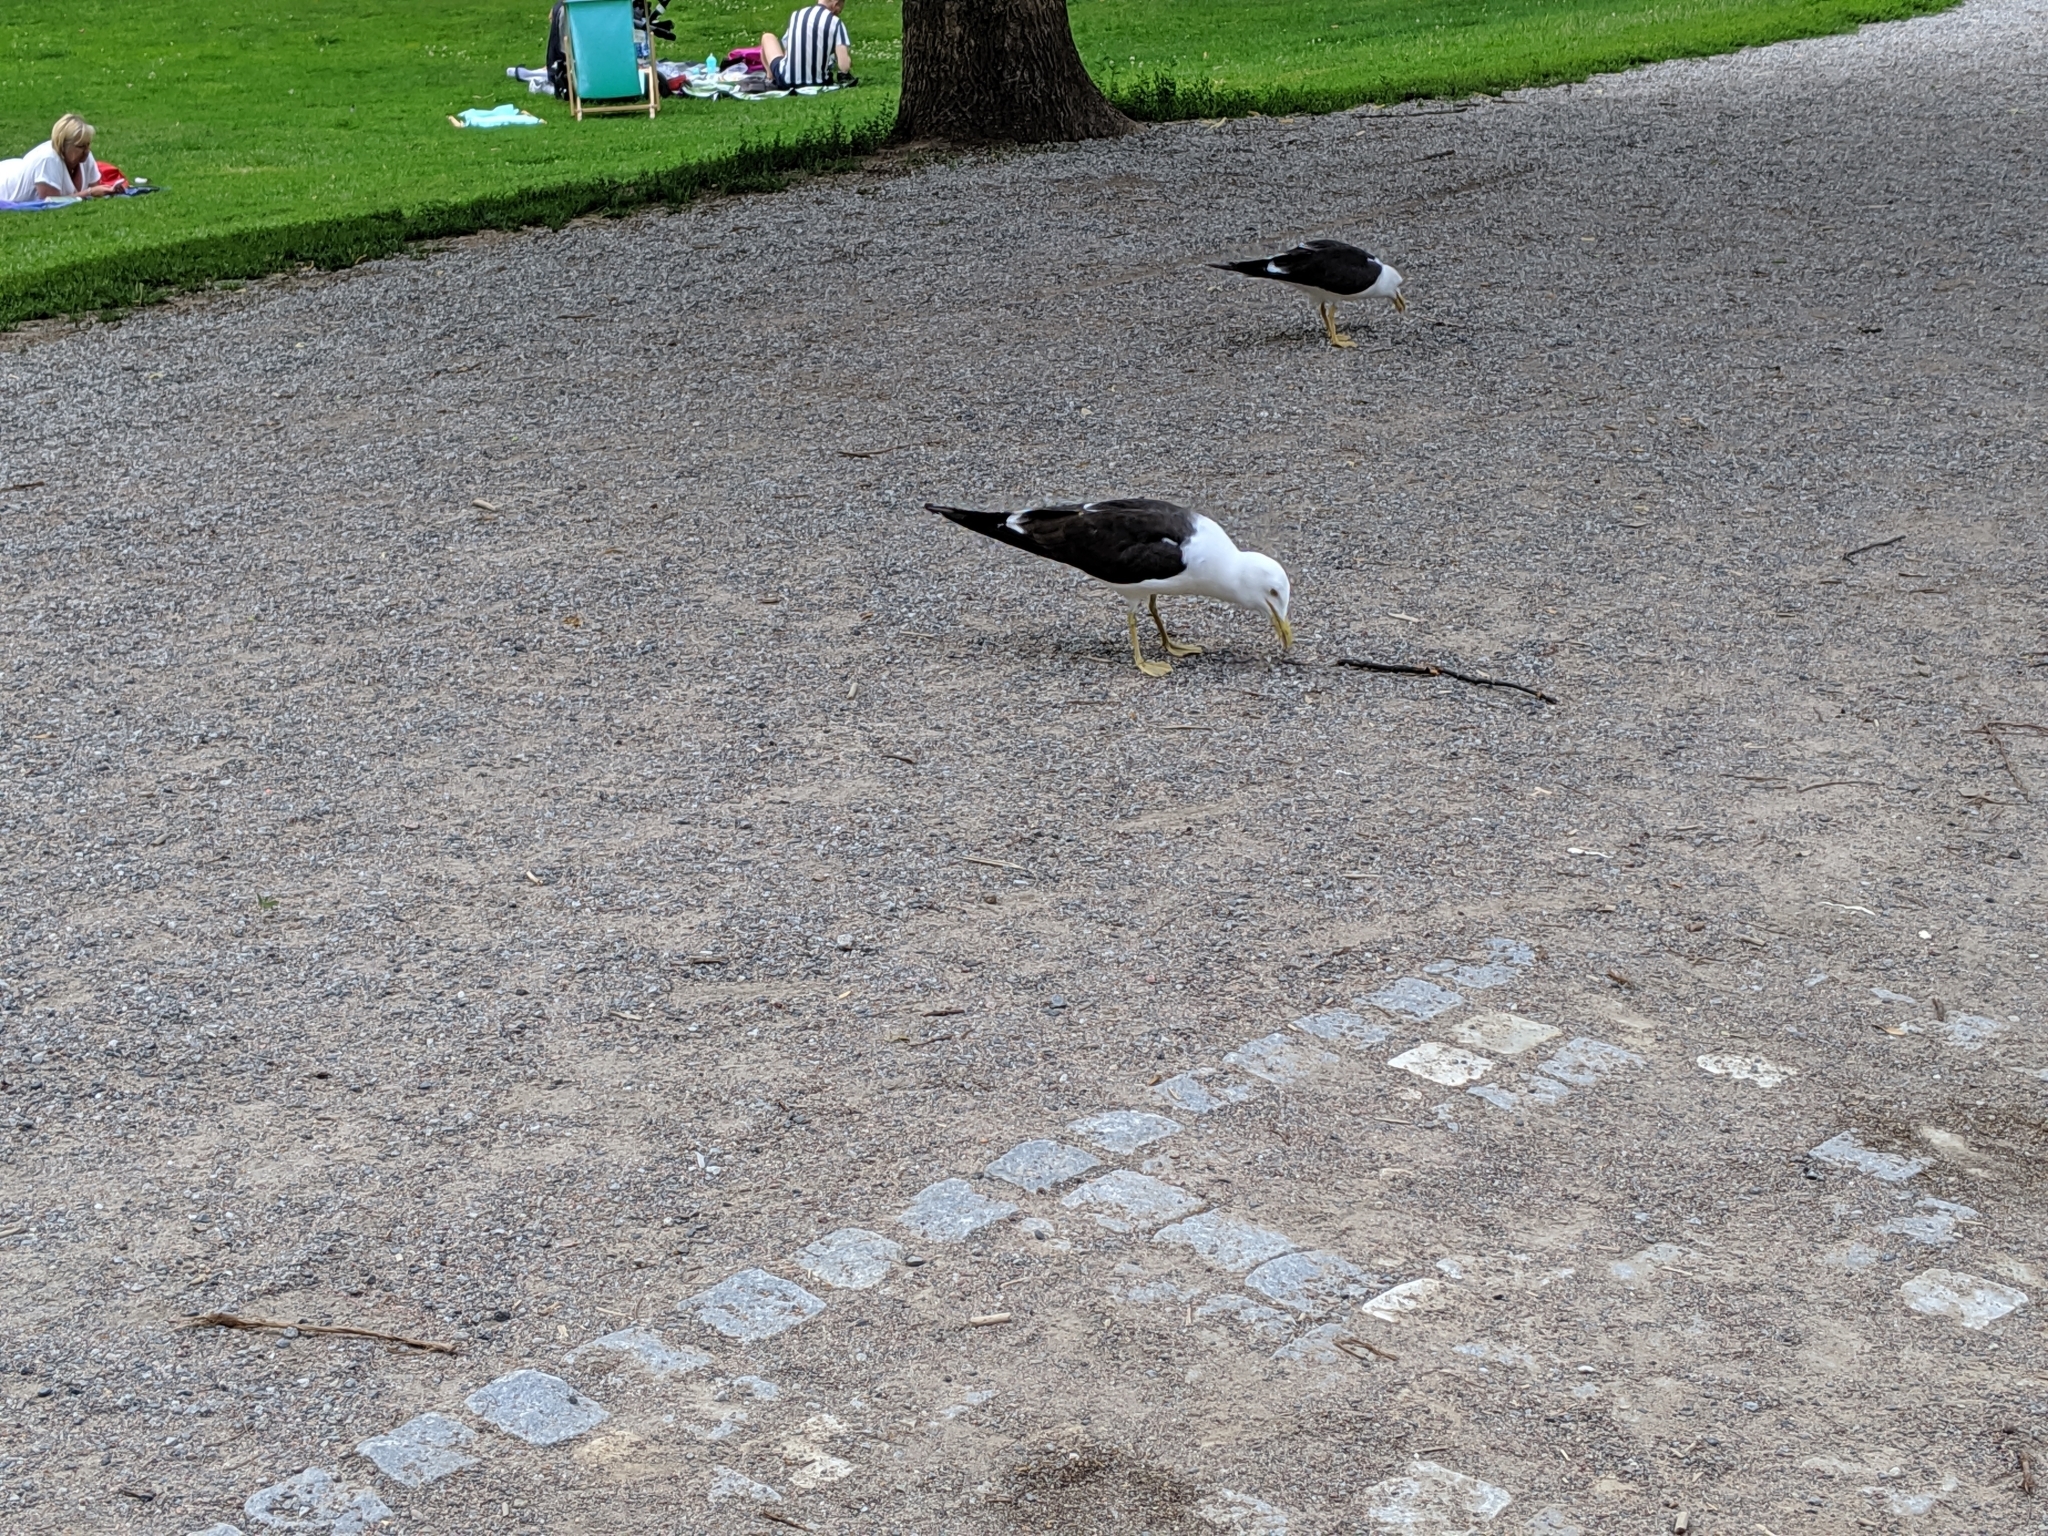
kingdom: Animalia
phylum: Chordata
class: Aves
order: Charadriiformes
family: Laridae
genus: Larus
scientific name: Larus fuscus
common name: Lesser black-backed gull
